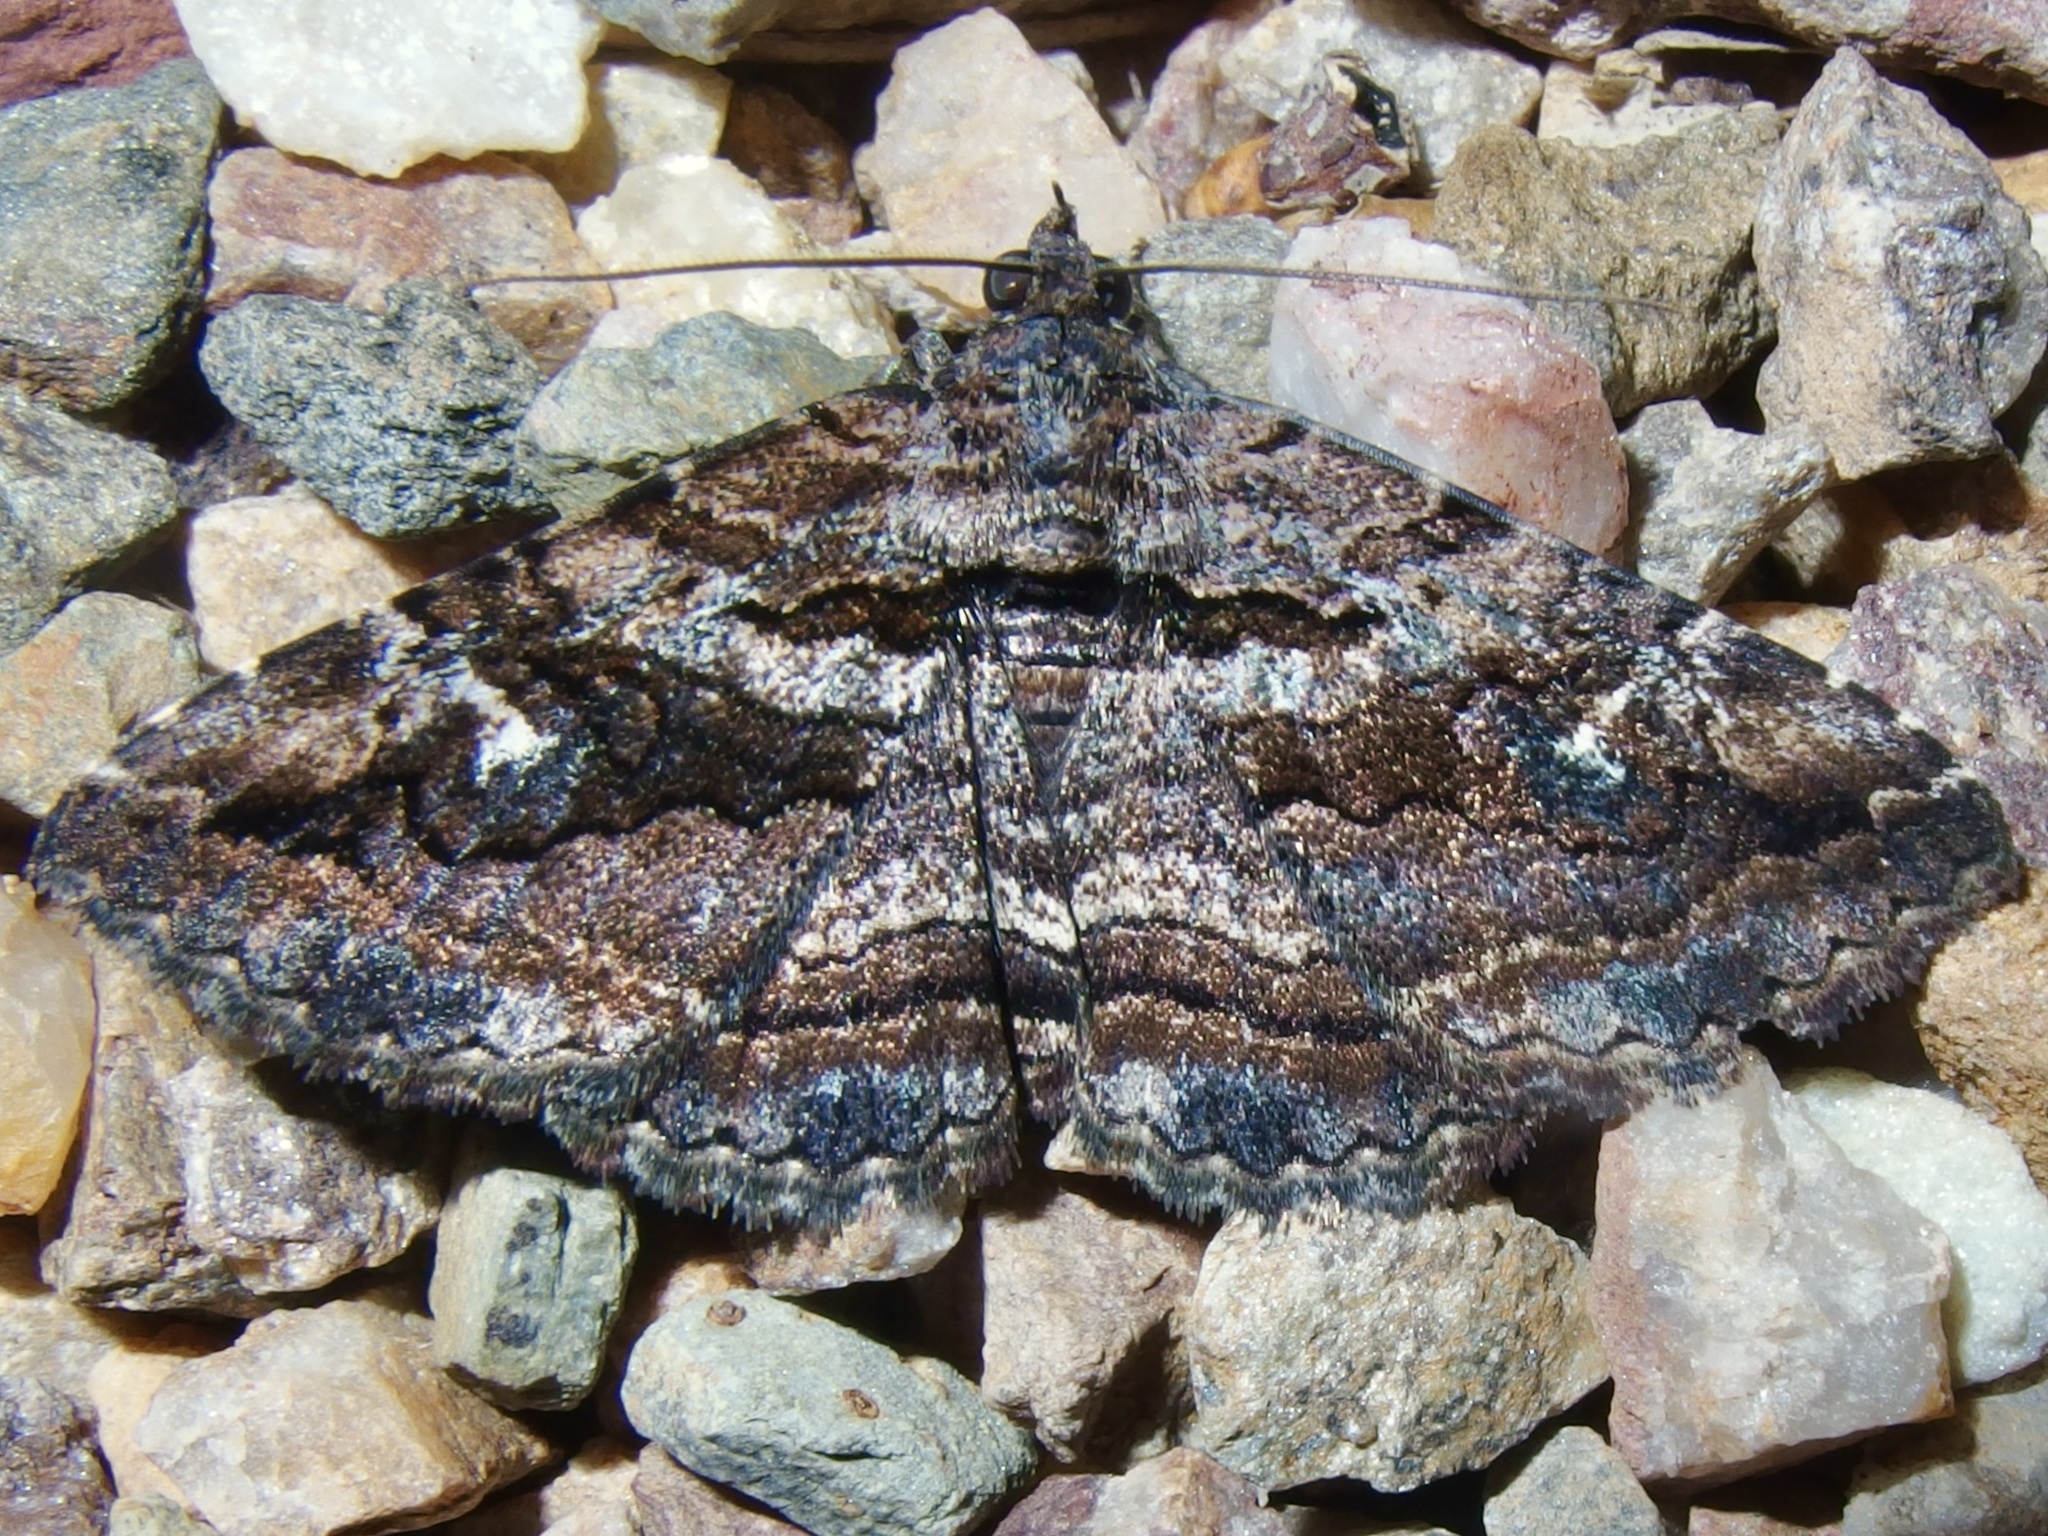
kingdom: Animalia
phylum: Arthropoda
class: Insecta
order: Lepidoptera
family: Erebidae
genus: Zaleops
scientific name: Zaleops umbrina
